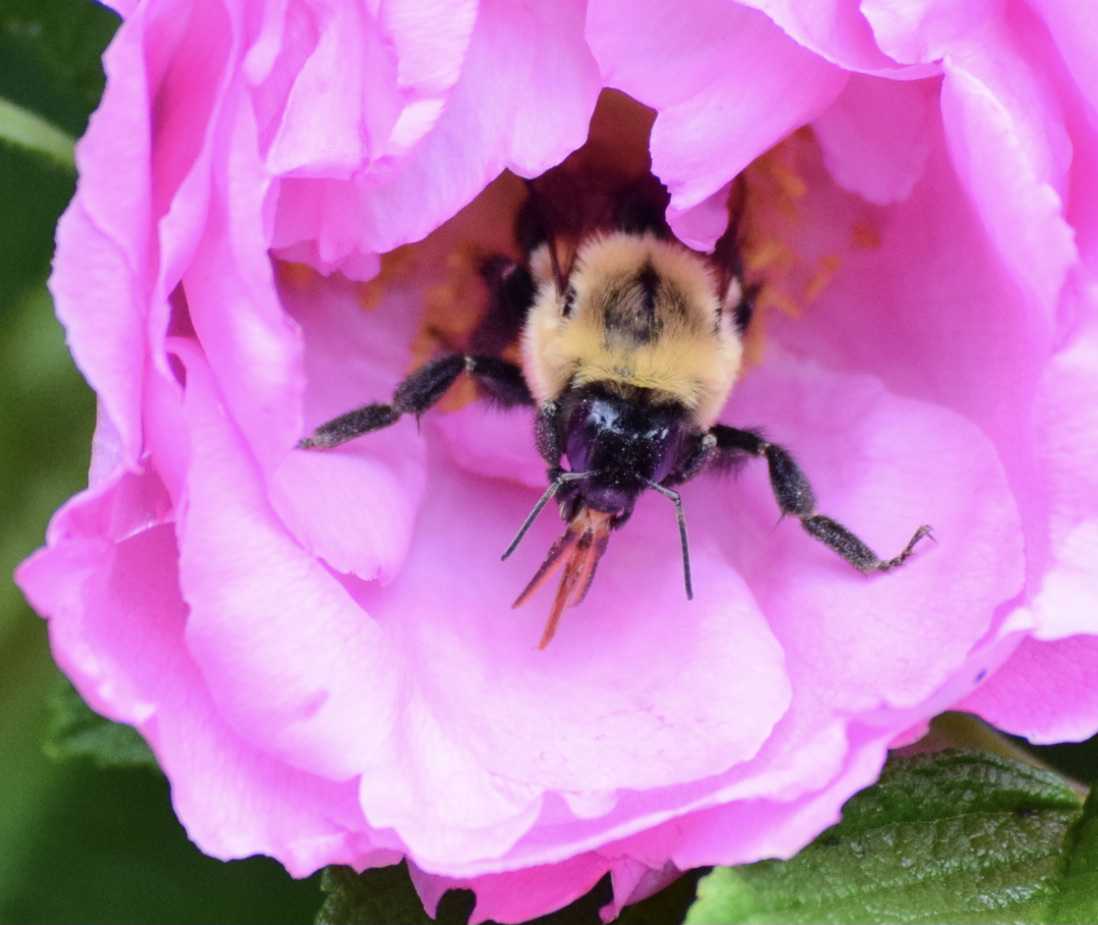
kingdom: Animalia
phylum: Arthropoda
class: Insecta
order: Hymenoptera
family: Apidae
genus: Bombus
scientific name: Bombus impatiens
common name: Common eastern bumble bee
